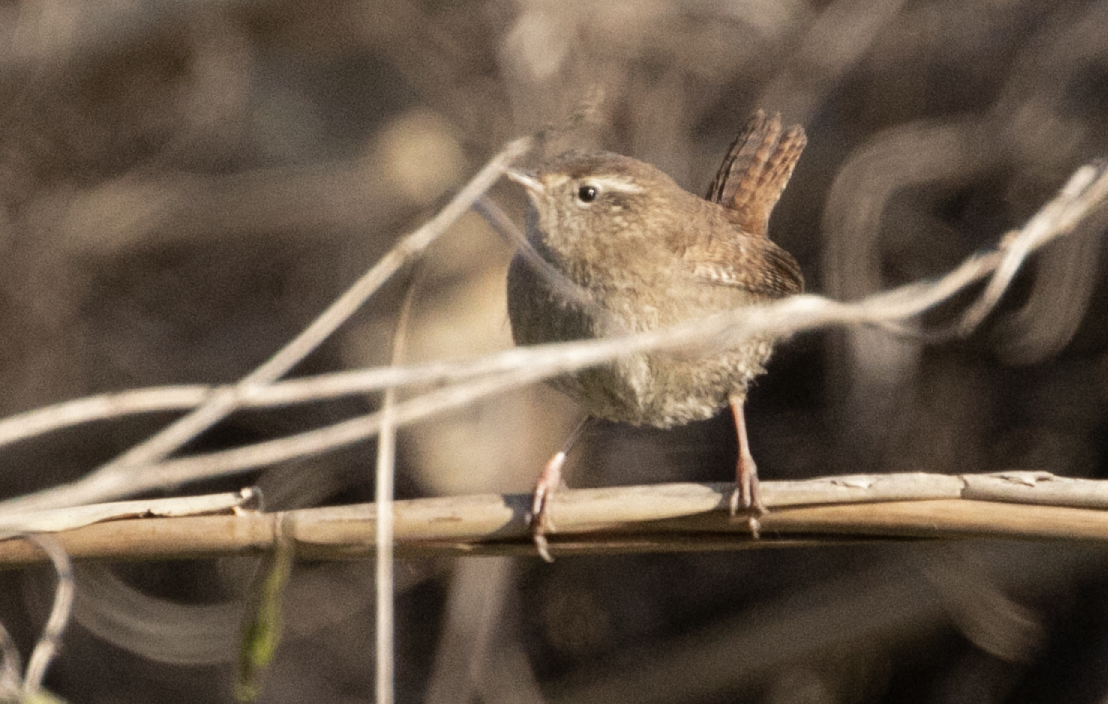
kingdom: Animalia
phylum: Chordata
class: Aves
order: Passeriformes
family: Troglodytidae
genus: Troglodytes
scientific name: Troglodytes troglodytes
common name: Eurasian wren
